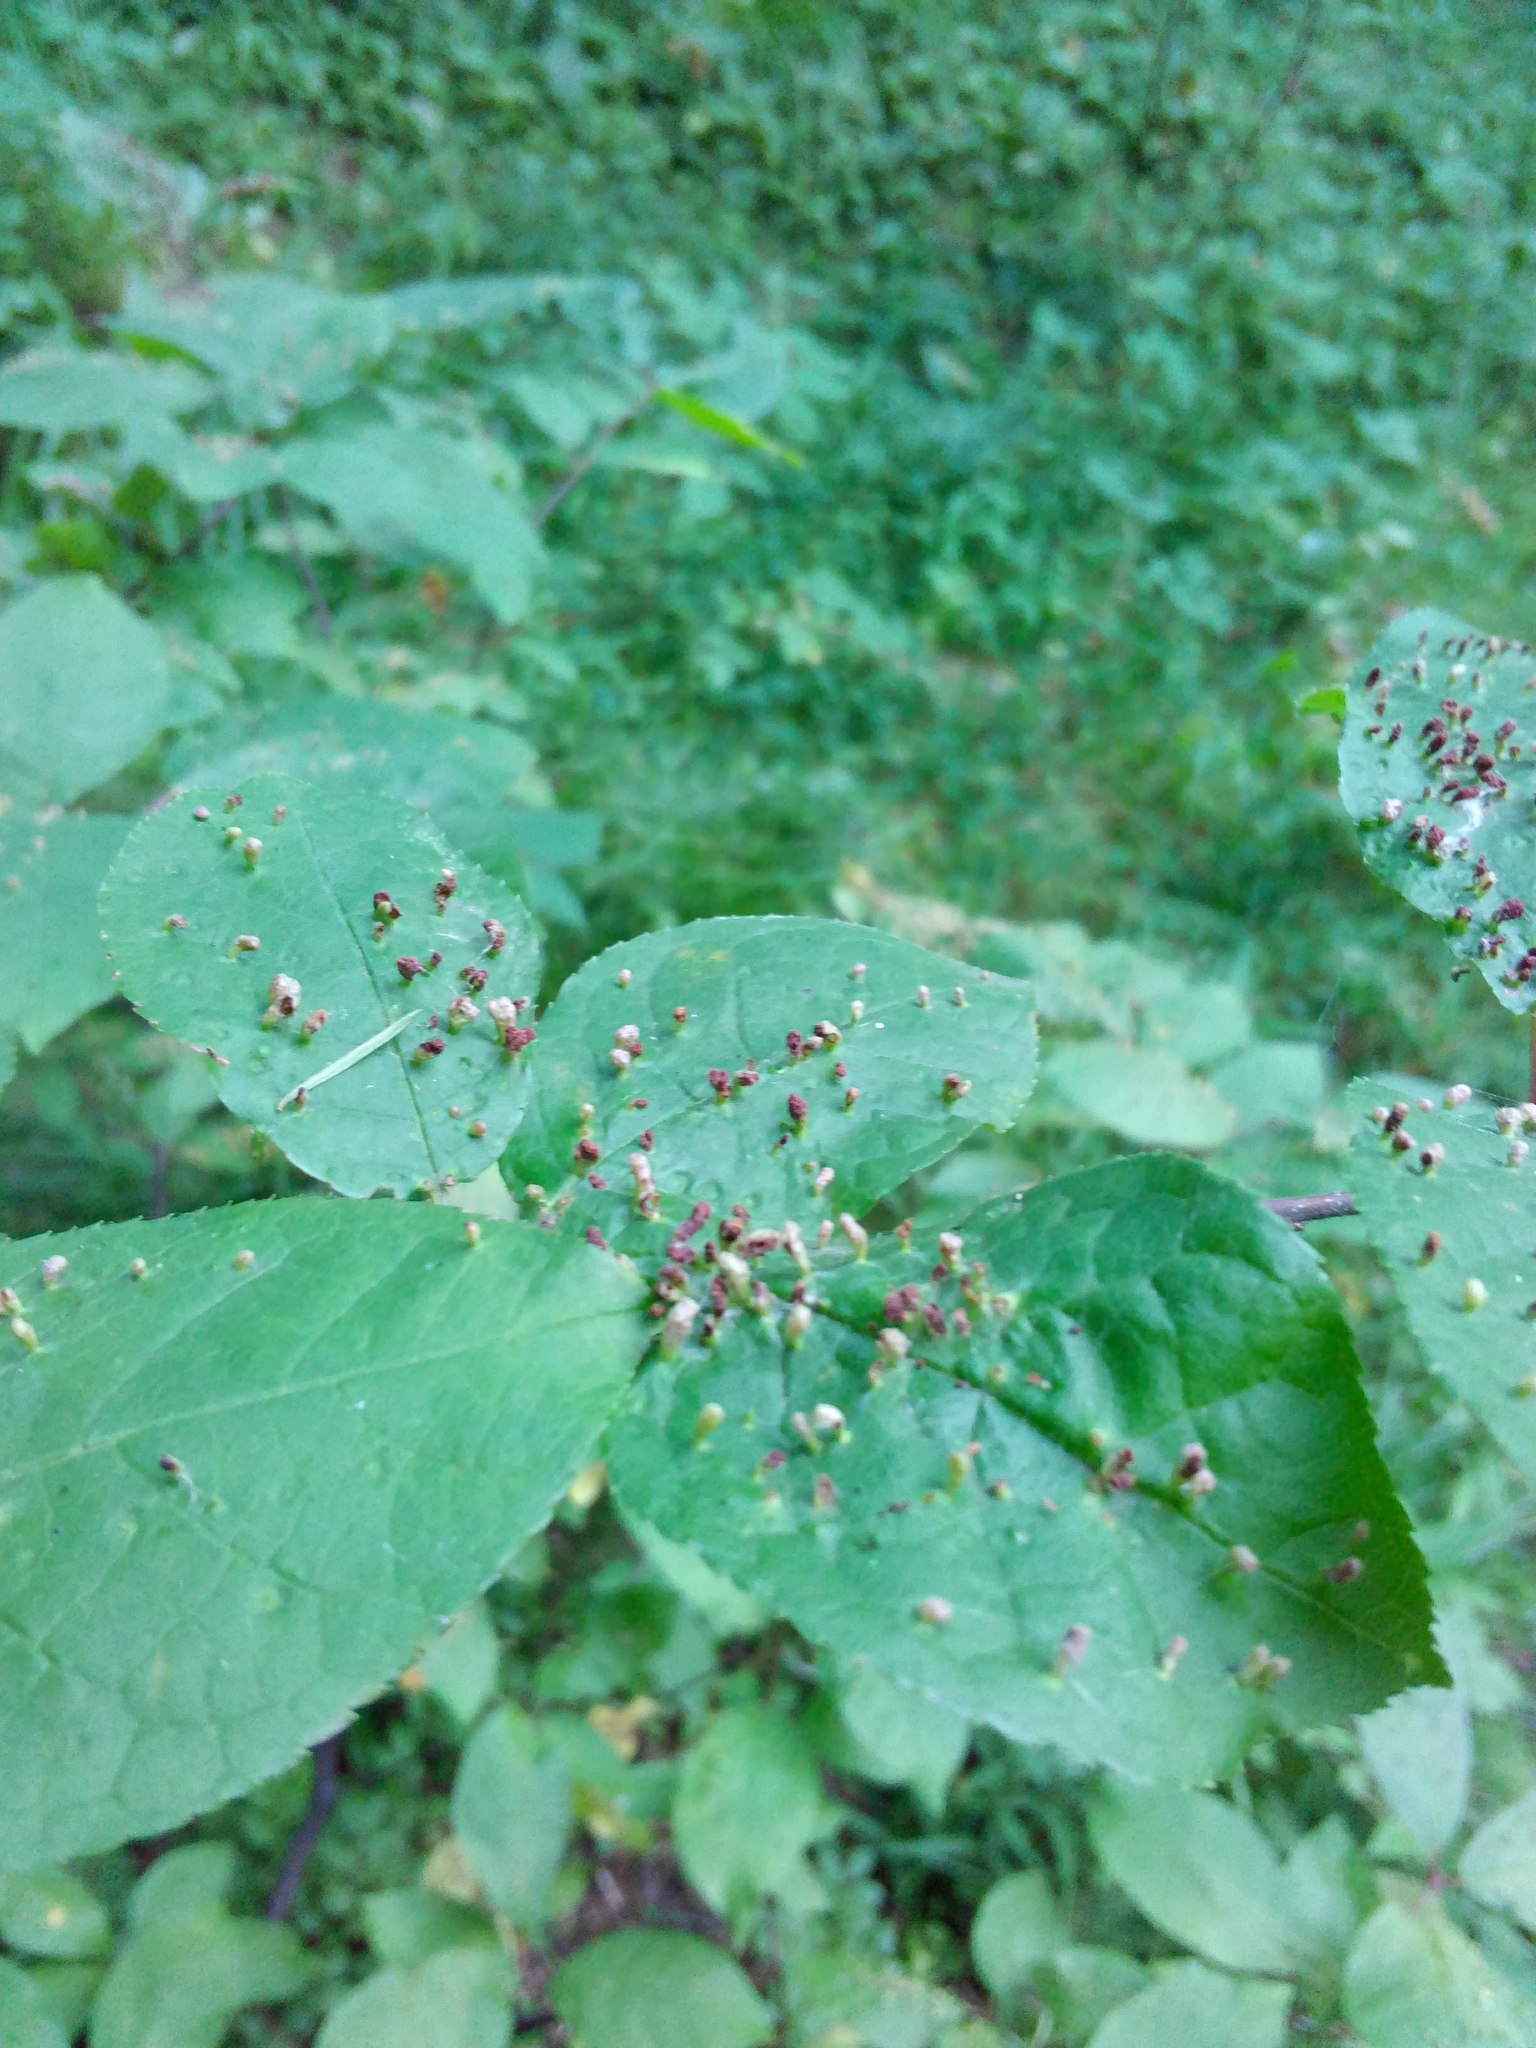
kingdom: Animalia
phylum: Arthropoda
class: Arachnida
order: Trombidiformes
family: Eriophyidae
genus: Phyllocoptes
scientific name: Phyllocoptes eupadi
